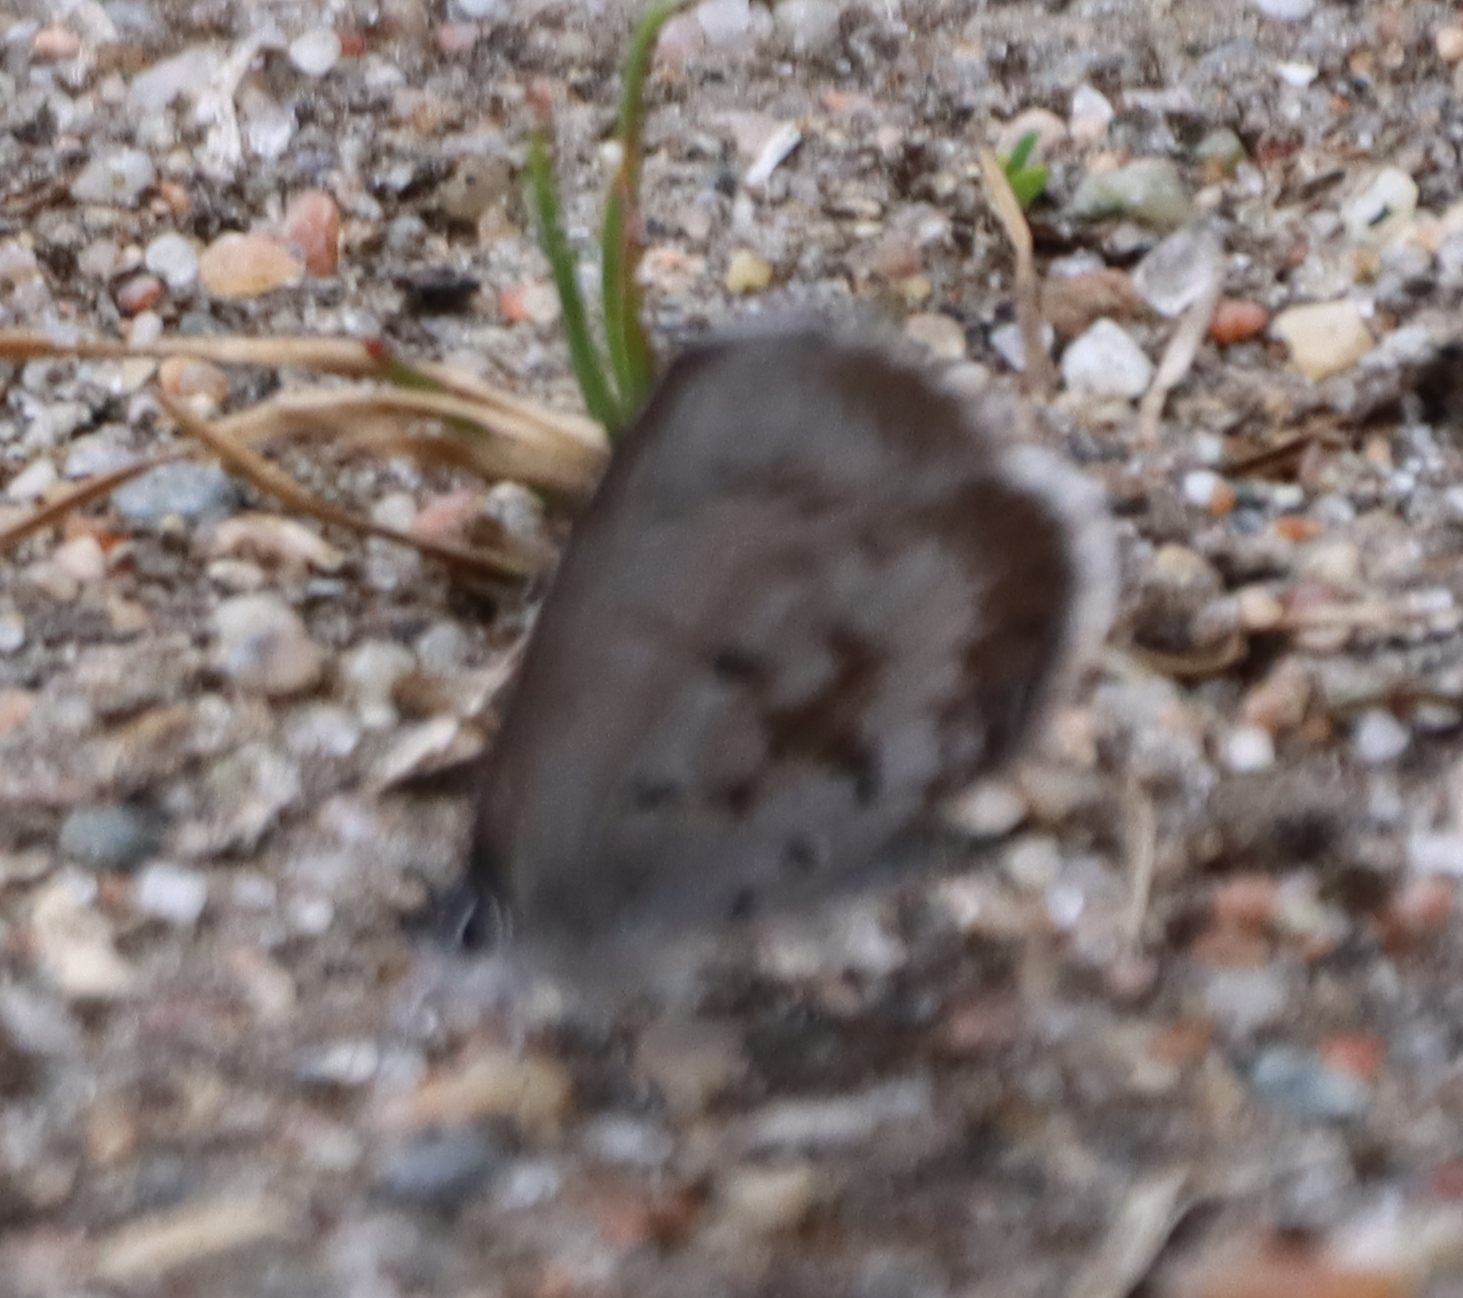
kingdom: Animalia
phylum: Arthropoda
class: Insecta
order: Lepidoptera
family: Lycaenidae
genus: Celastrina
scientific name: Celastrina lucia
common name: Lucia azure
